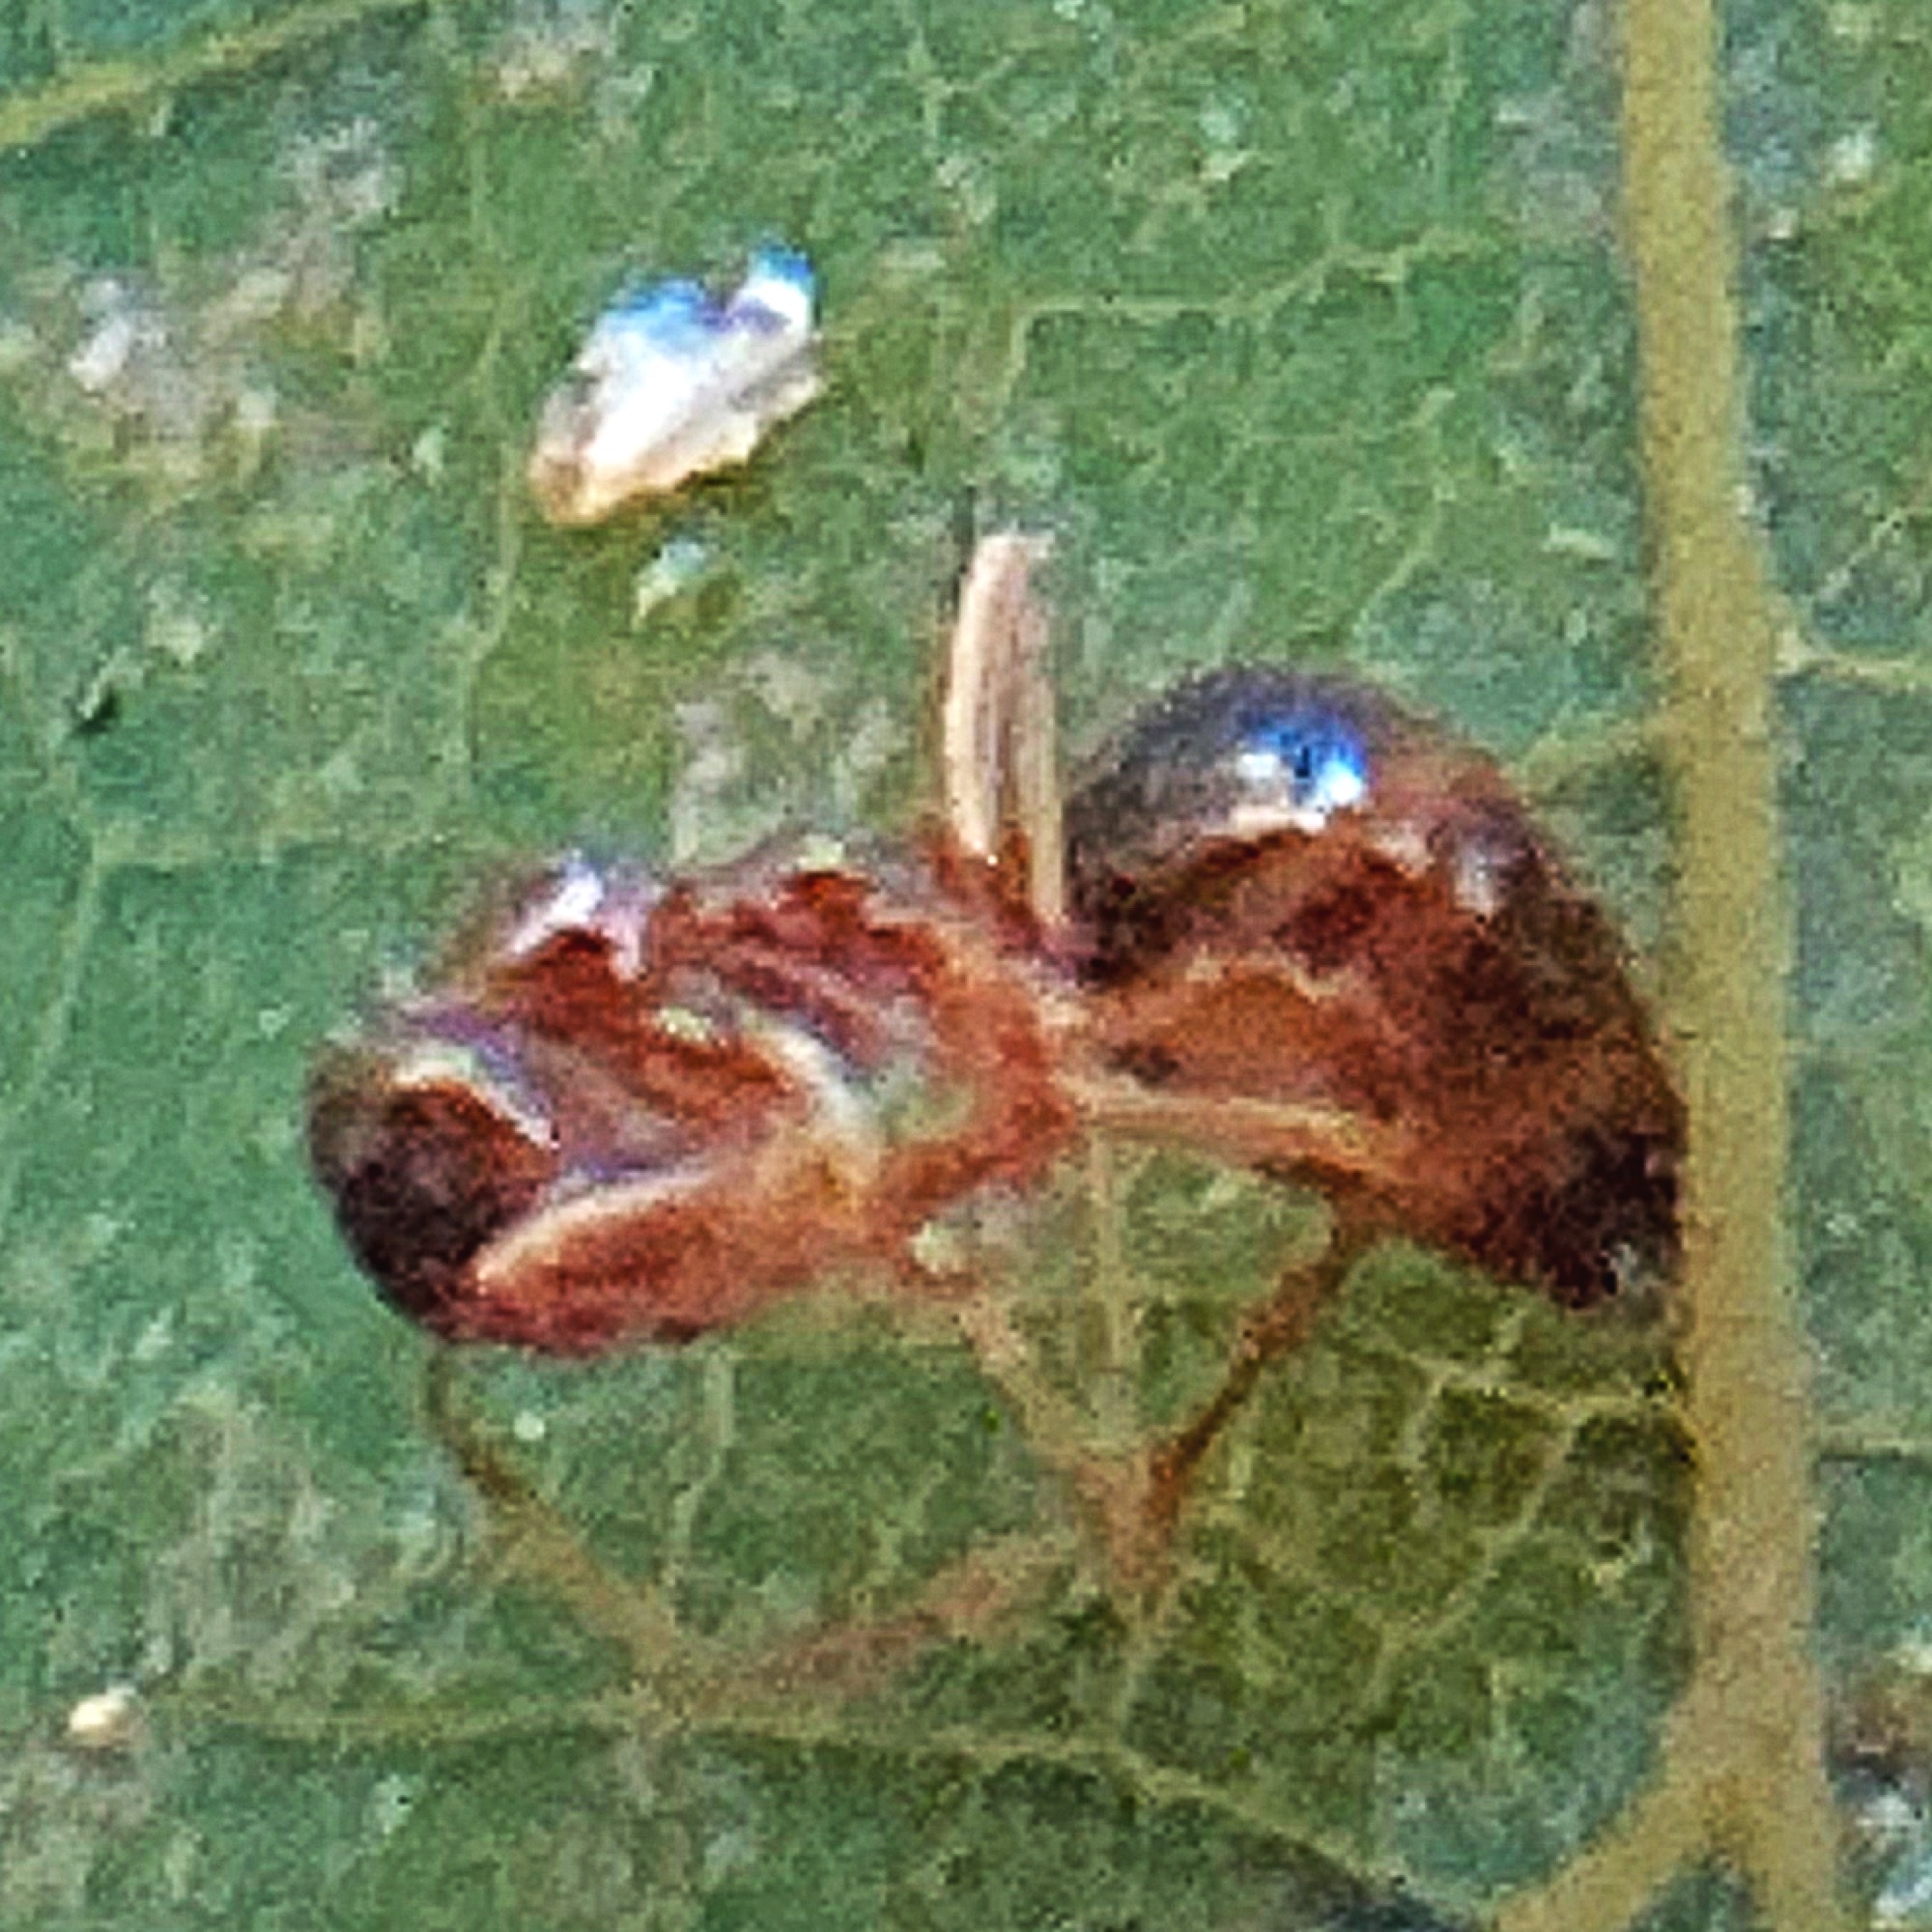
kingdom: Animalia
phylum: Arthropoda
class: Insecta
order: Hymenoptera
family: Formicidae
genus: Prenolepis
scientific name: Prenolepis imparis
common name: Small honey ant
